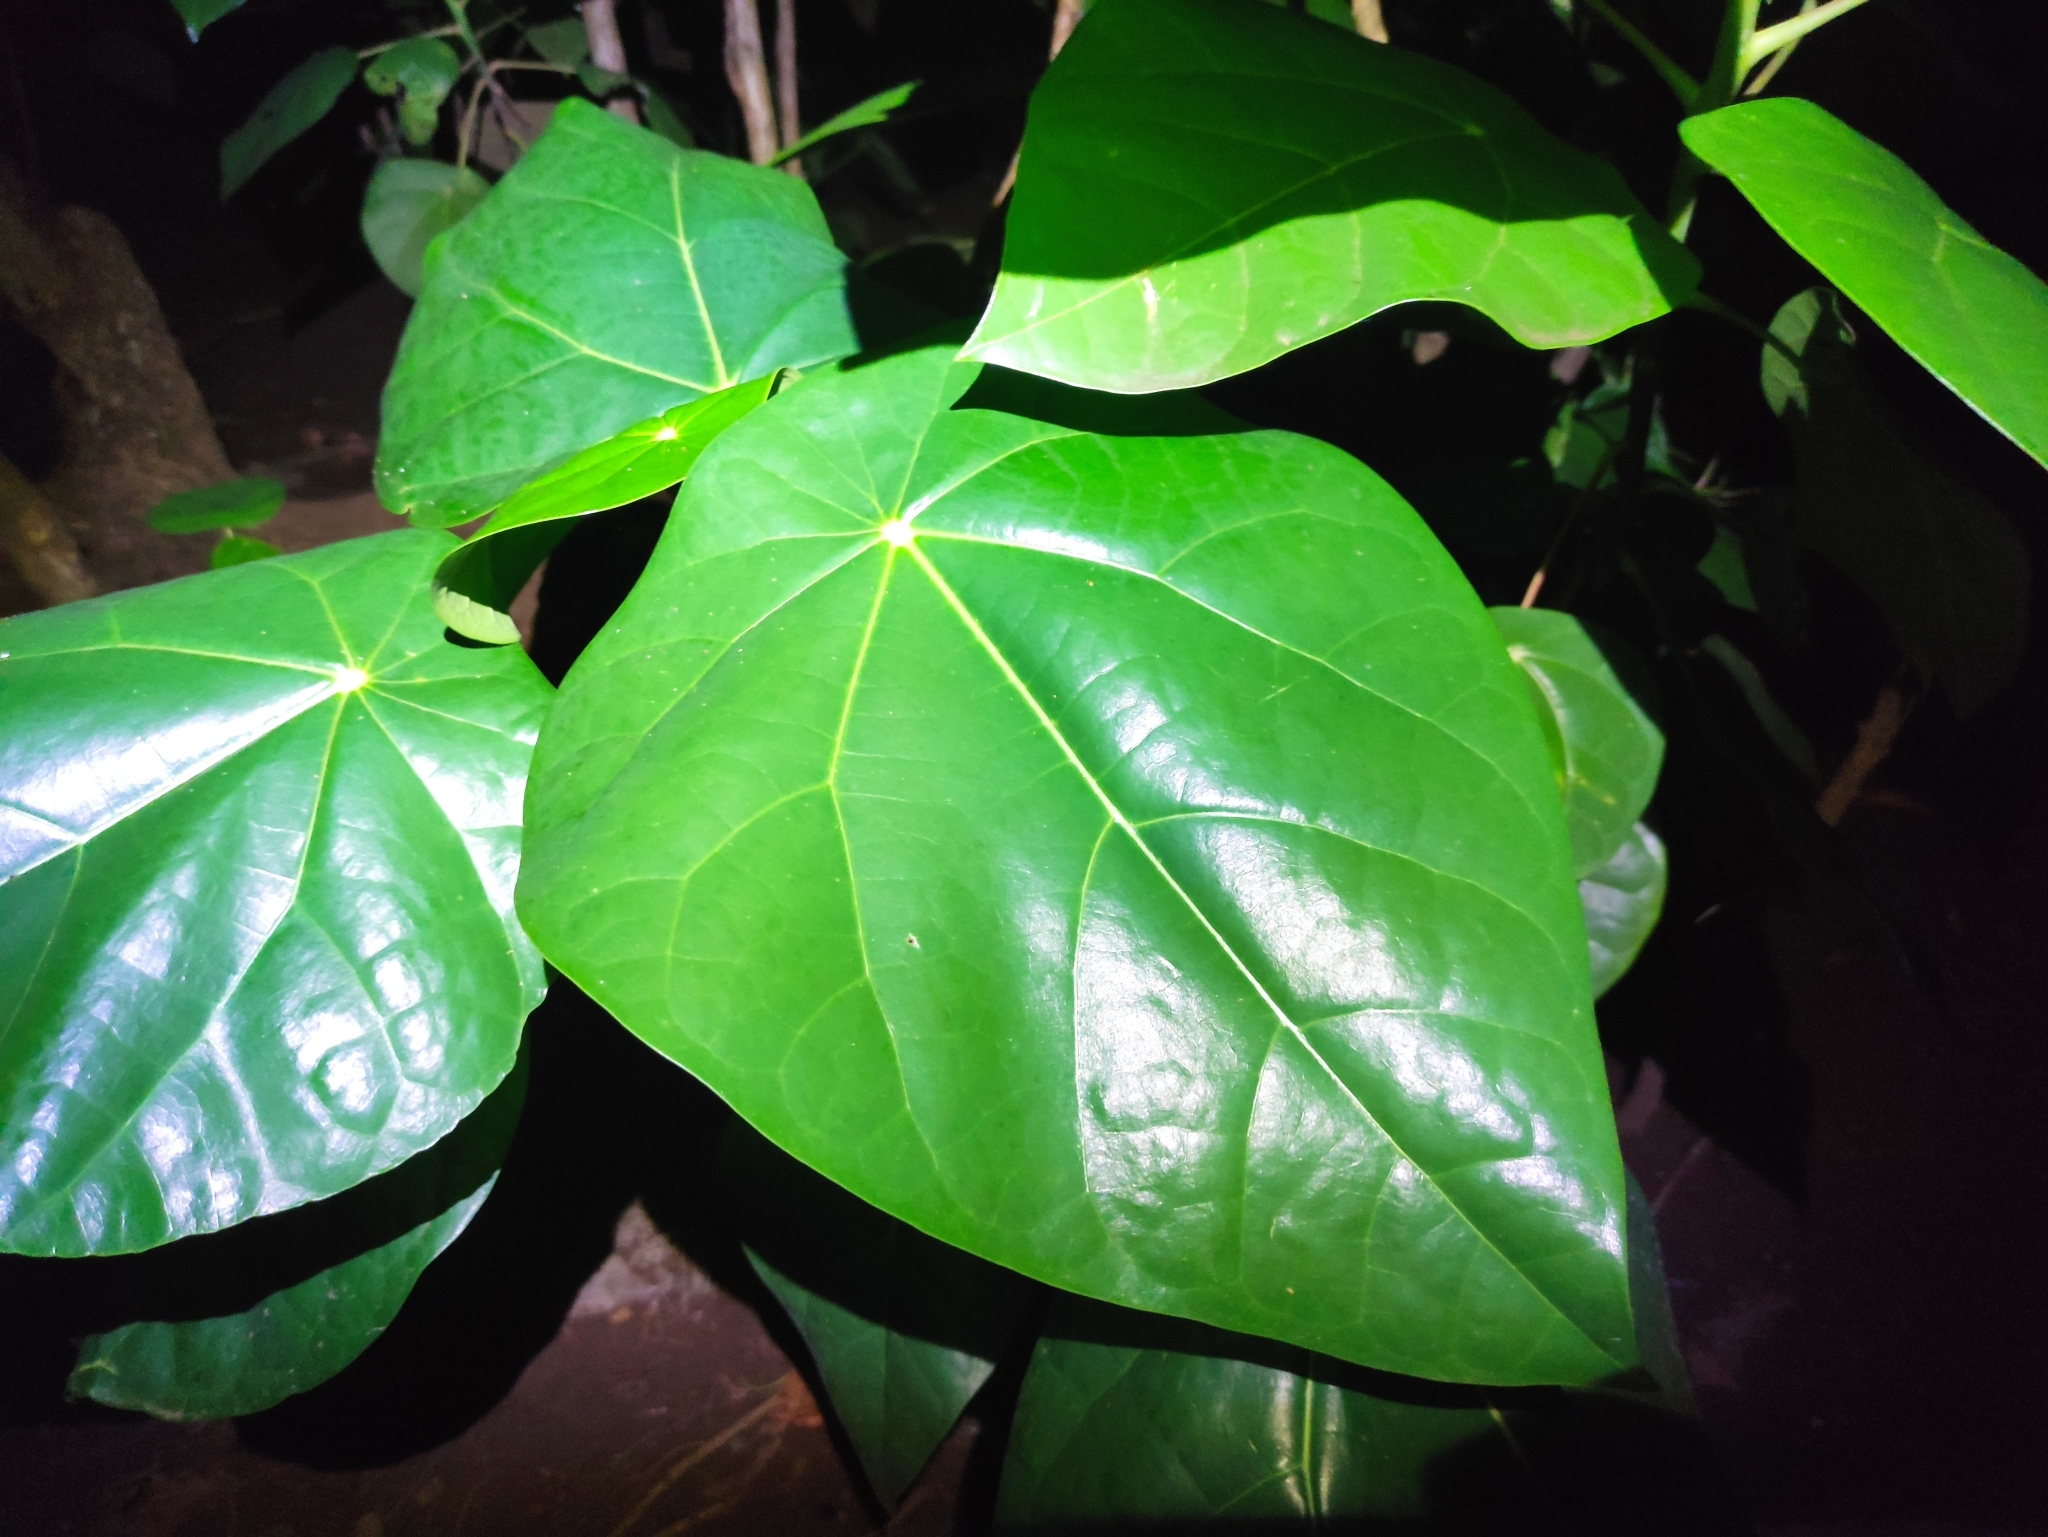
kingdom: Plantae
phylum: Tracheophyta
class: Magnoliopsida
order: Laurales
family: Hernandiaceae
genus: Hernandia
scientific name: Hernandia nymphaeifolia
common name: Sea hearse
